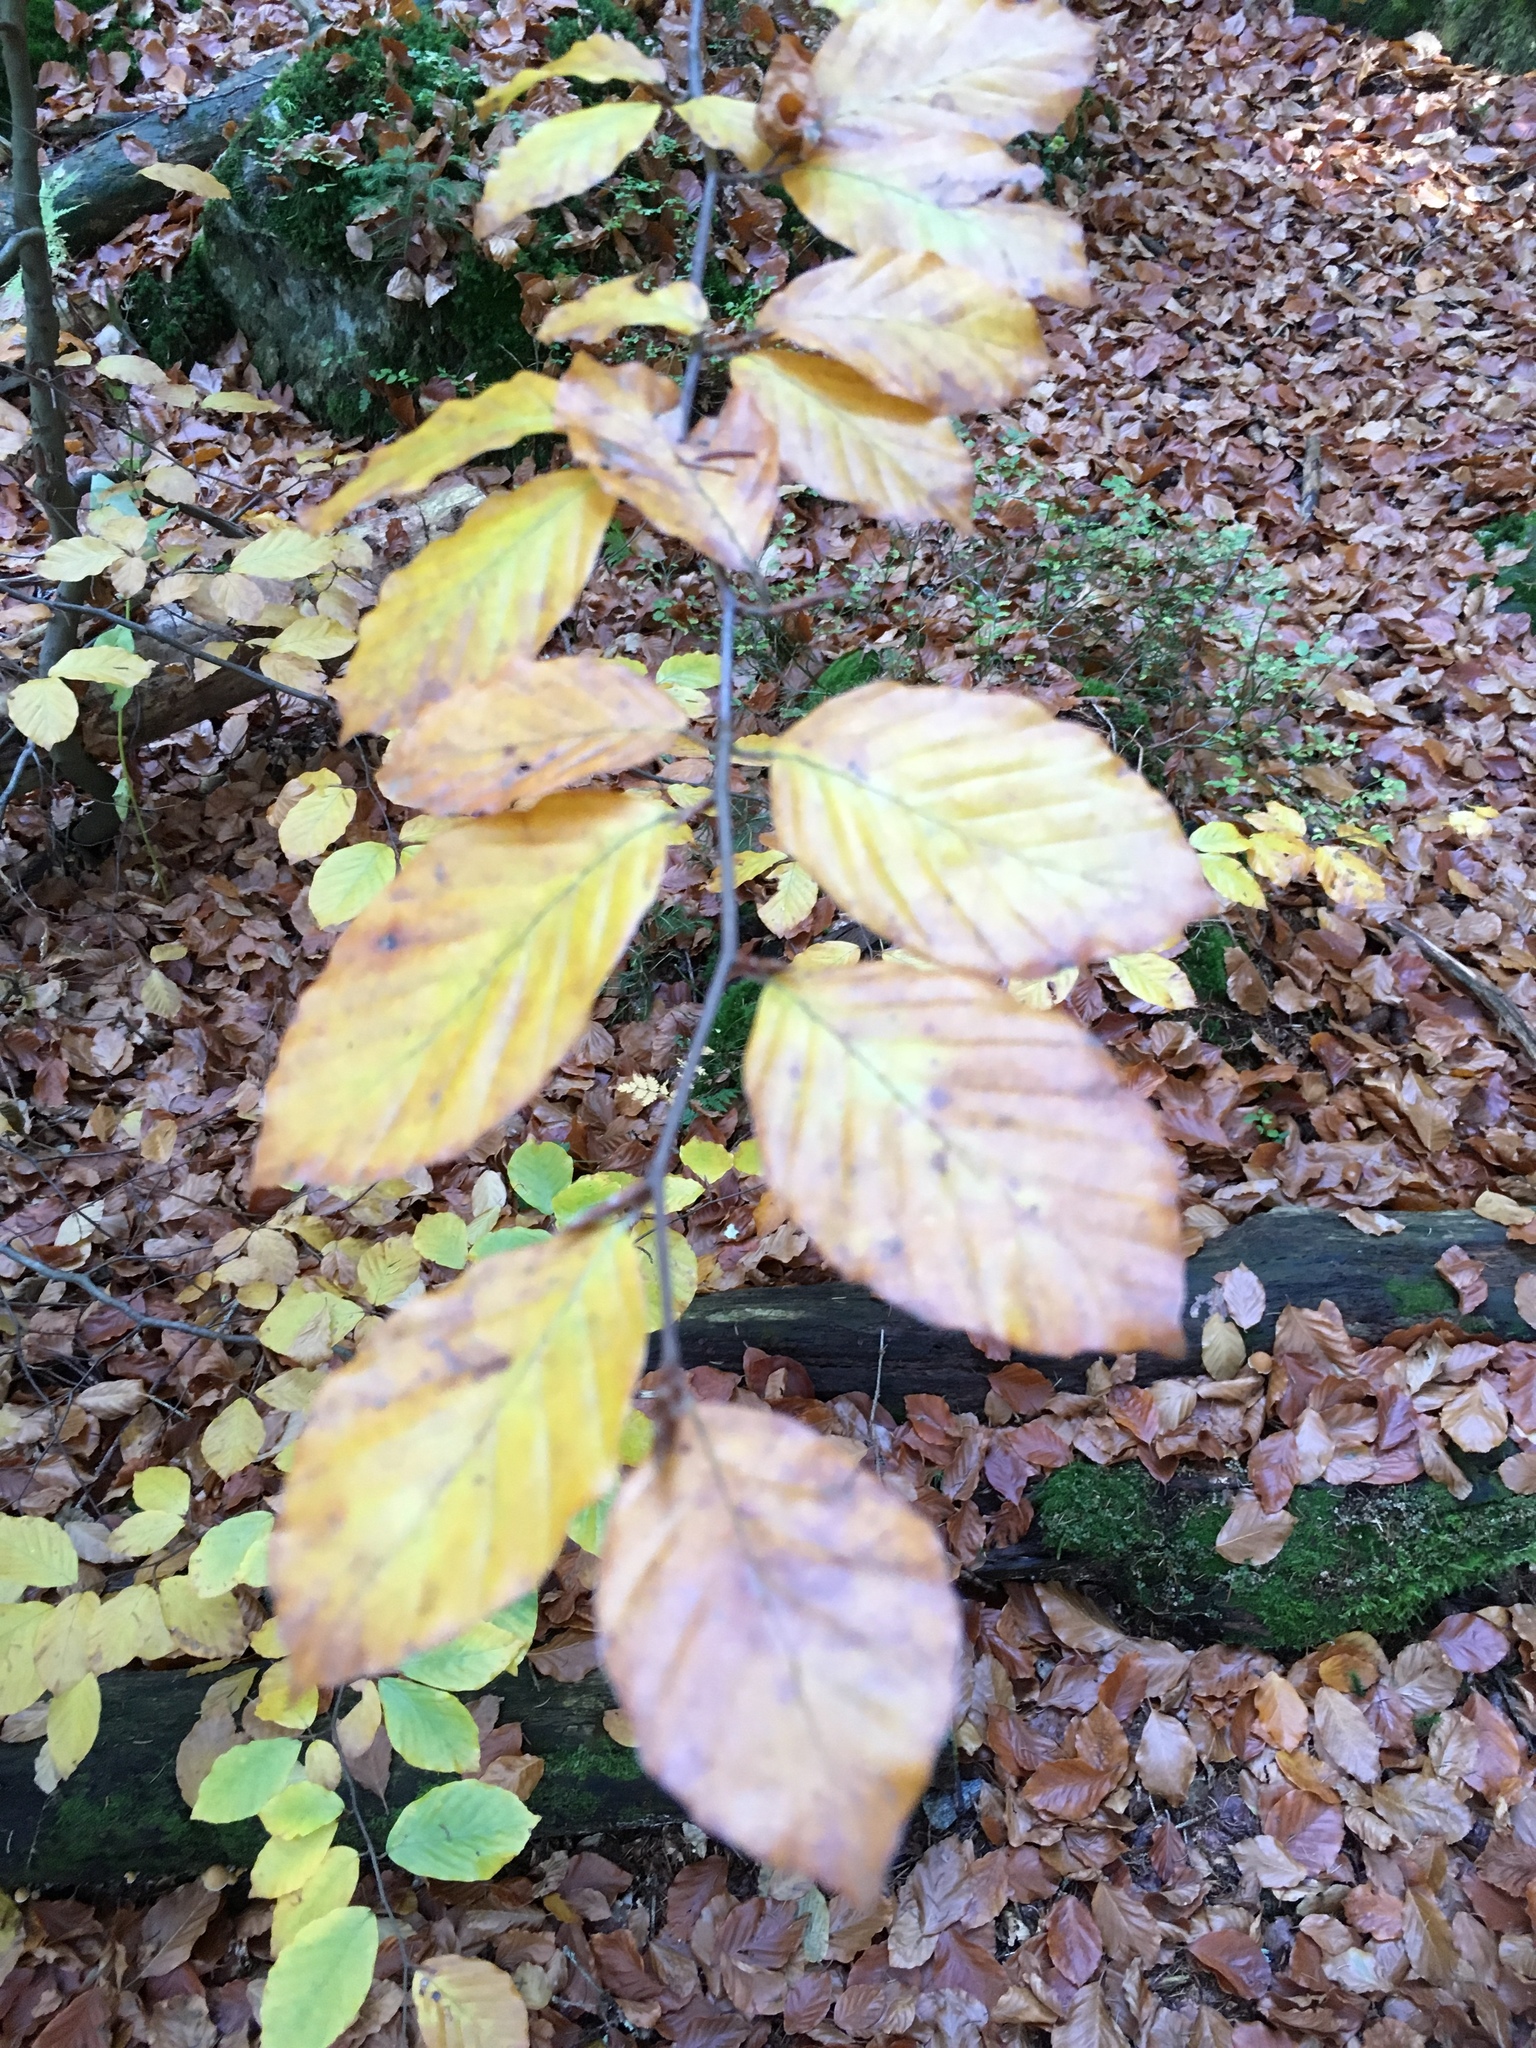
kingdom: Plantae
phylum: Tracheophyta
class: Magnoliopsida
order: Fagales
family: Fagaceae
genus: Fagus
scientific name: Fagus sylvatica
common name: Beech
